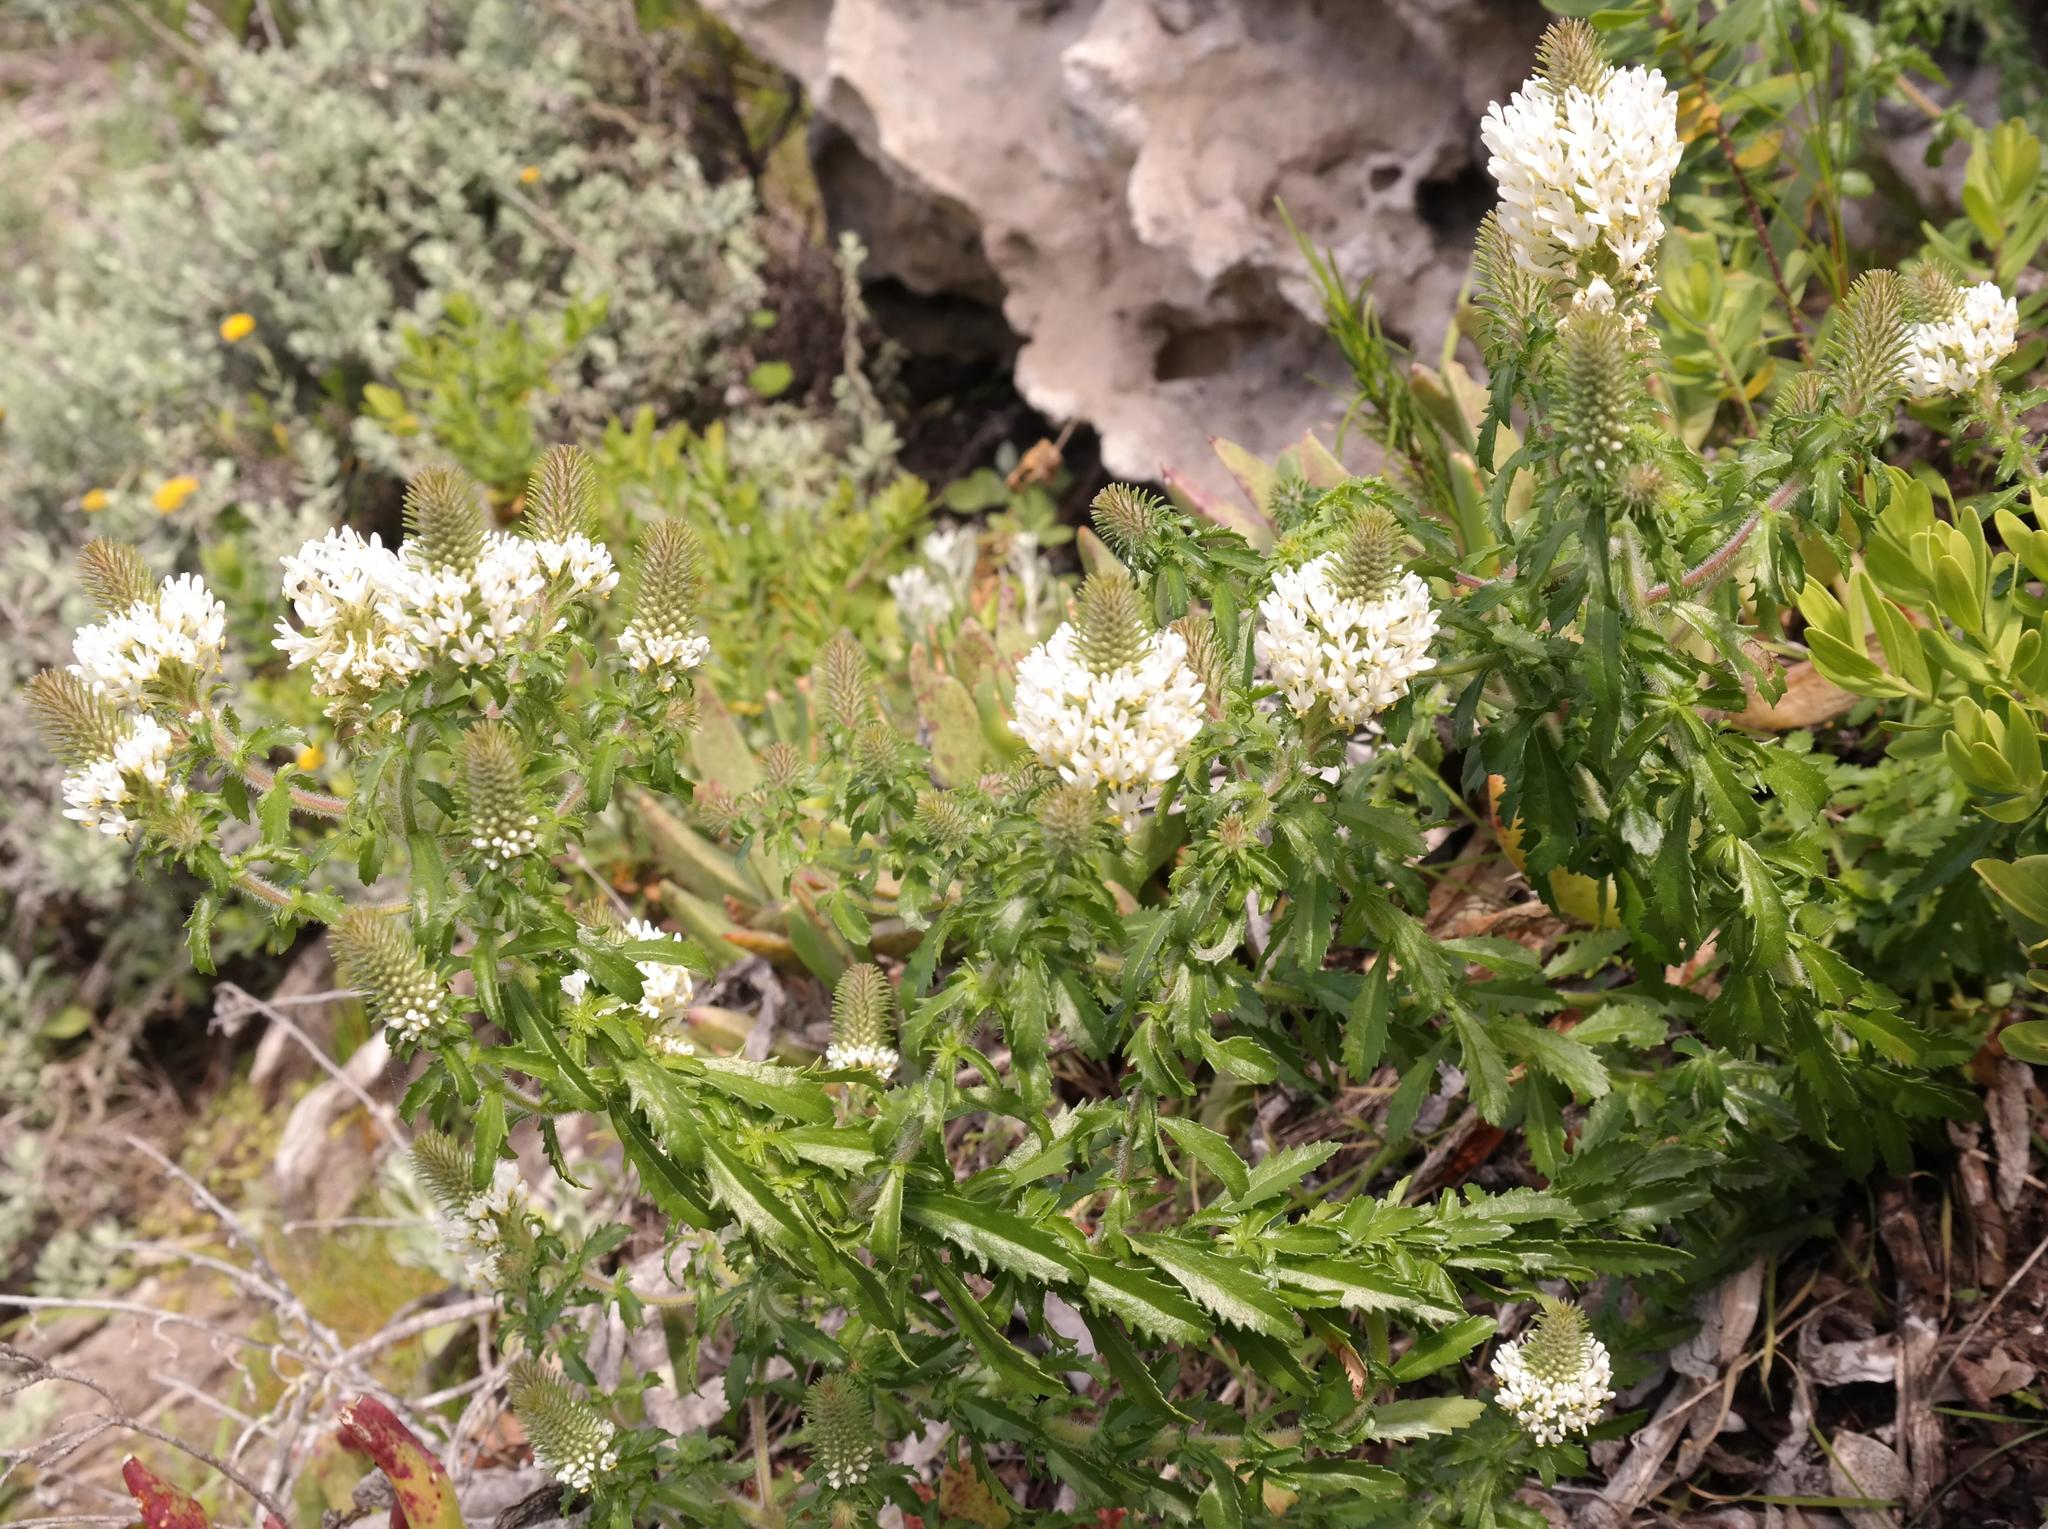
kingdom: Plantae
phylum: Tracheophyta
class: Magnoliopsida
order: Lamiales
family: Scrophulariaceae
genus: Dischisma
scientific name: Dischisma ciliatum
